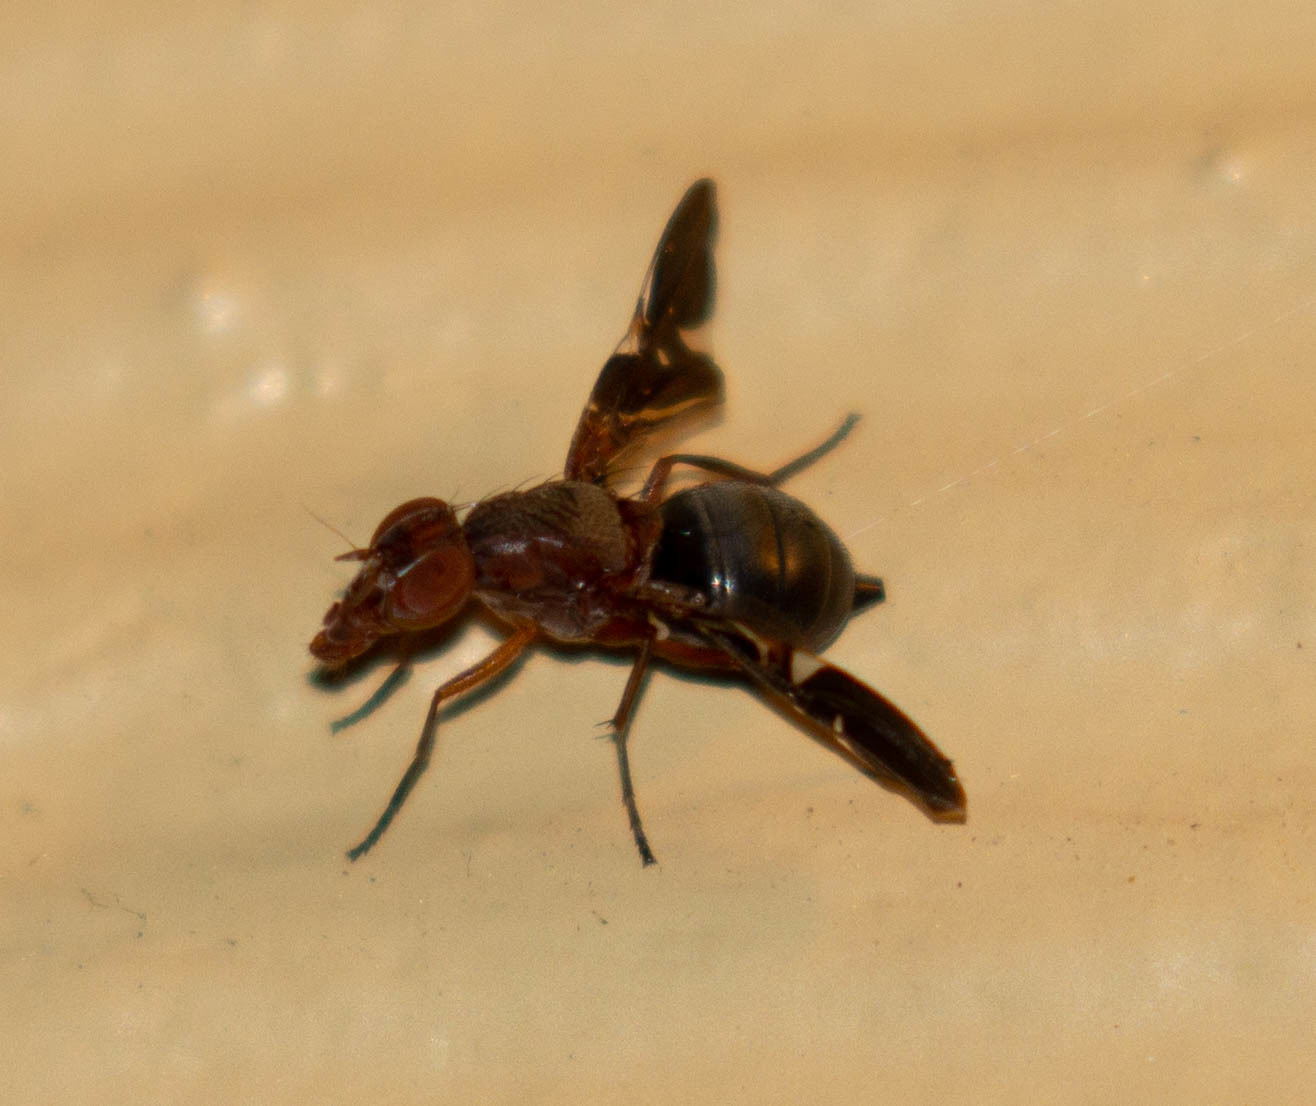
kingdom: Animalia
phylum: Arthropoda
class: Insecta
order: Diptera
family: Ulidiidae
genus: Delphinia
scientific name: Delphinia picta
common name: Common picture-winged fly
